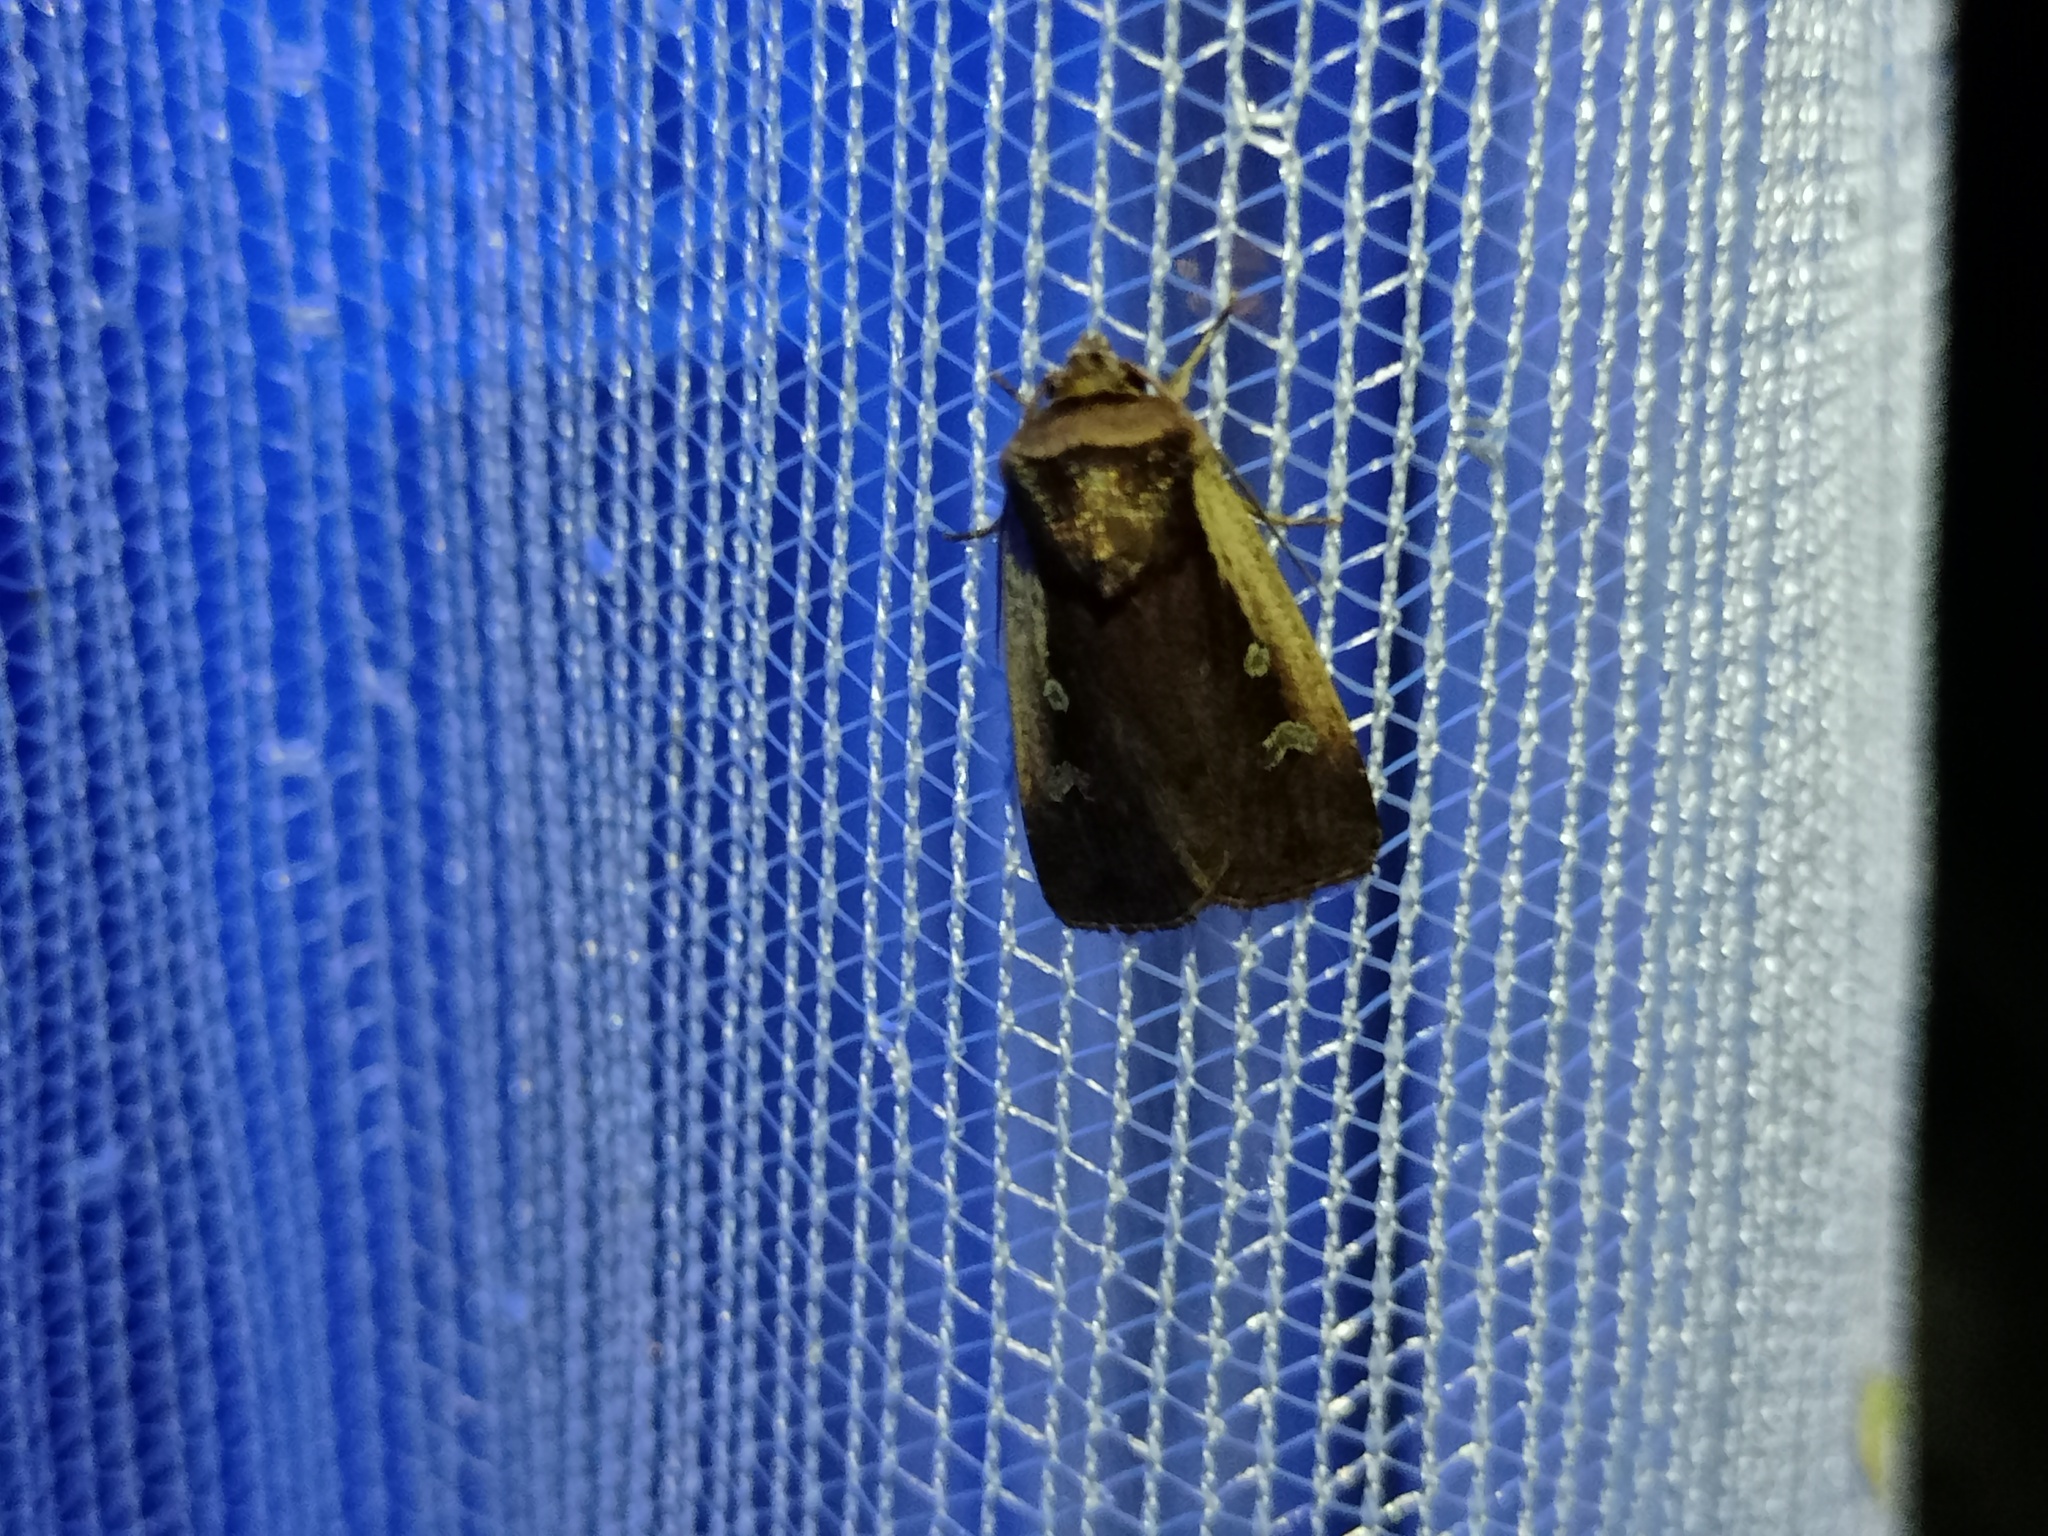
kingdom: Animalia
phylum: Arthropoda
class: Insecta
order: Lepidoptera
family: Noctuidae
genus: Ochropleura
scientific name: Ochropleura plecta
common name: Flame shoulder
